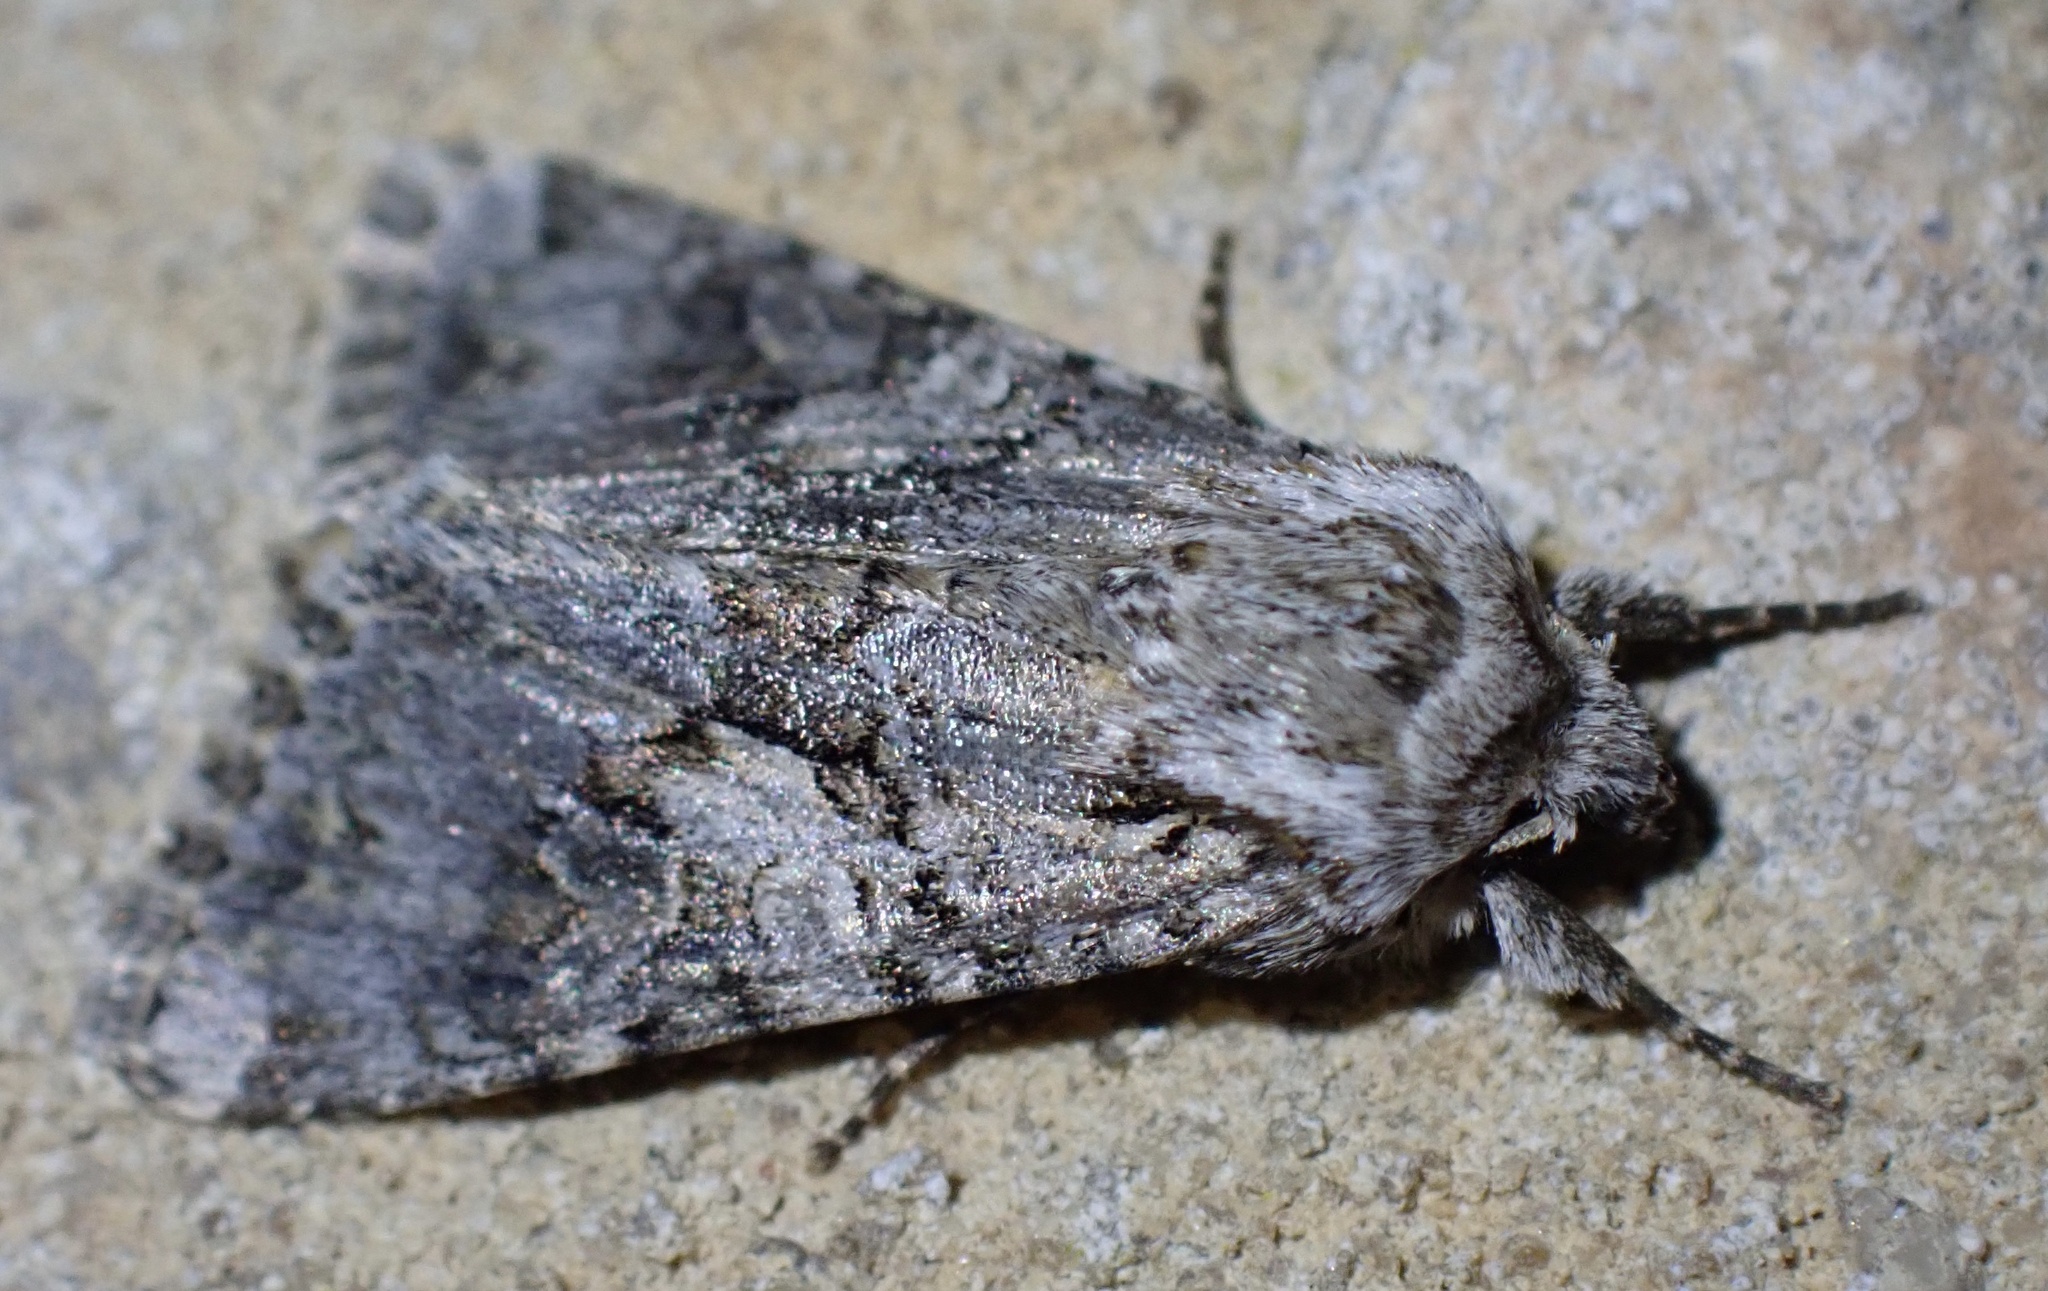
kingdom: Animalia
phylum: Arthropoda
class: Insecta
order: Lepidoptera
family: Noctuidae
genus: Hada
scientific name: Hada plebeja
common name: Shears
